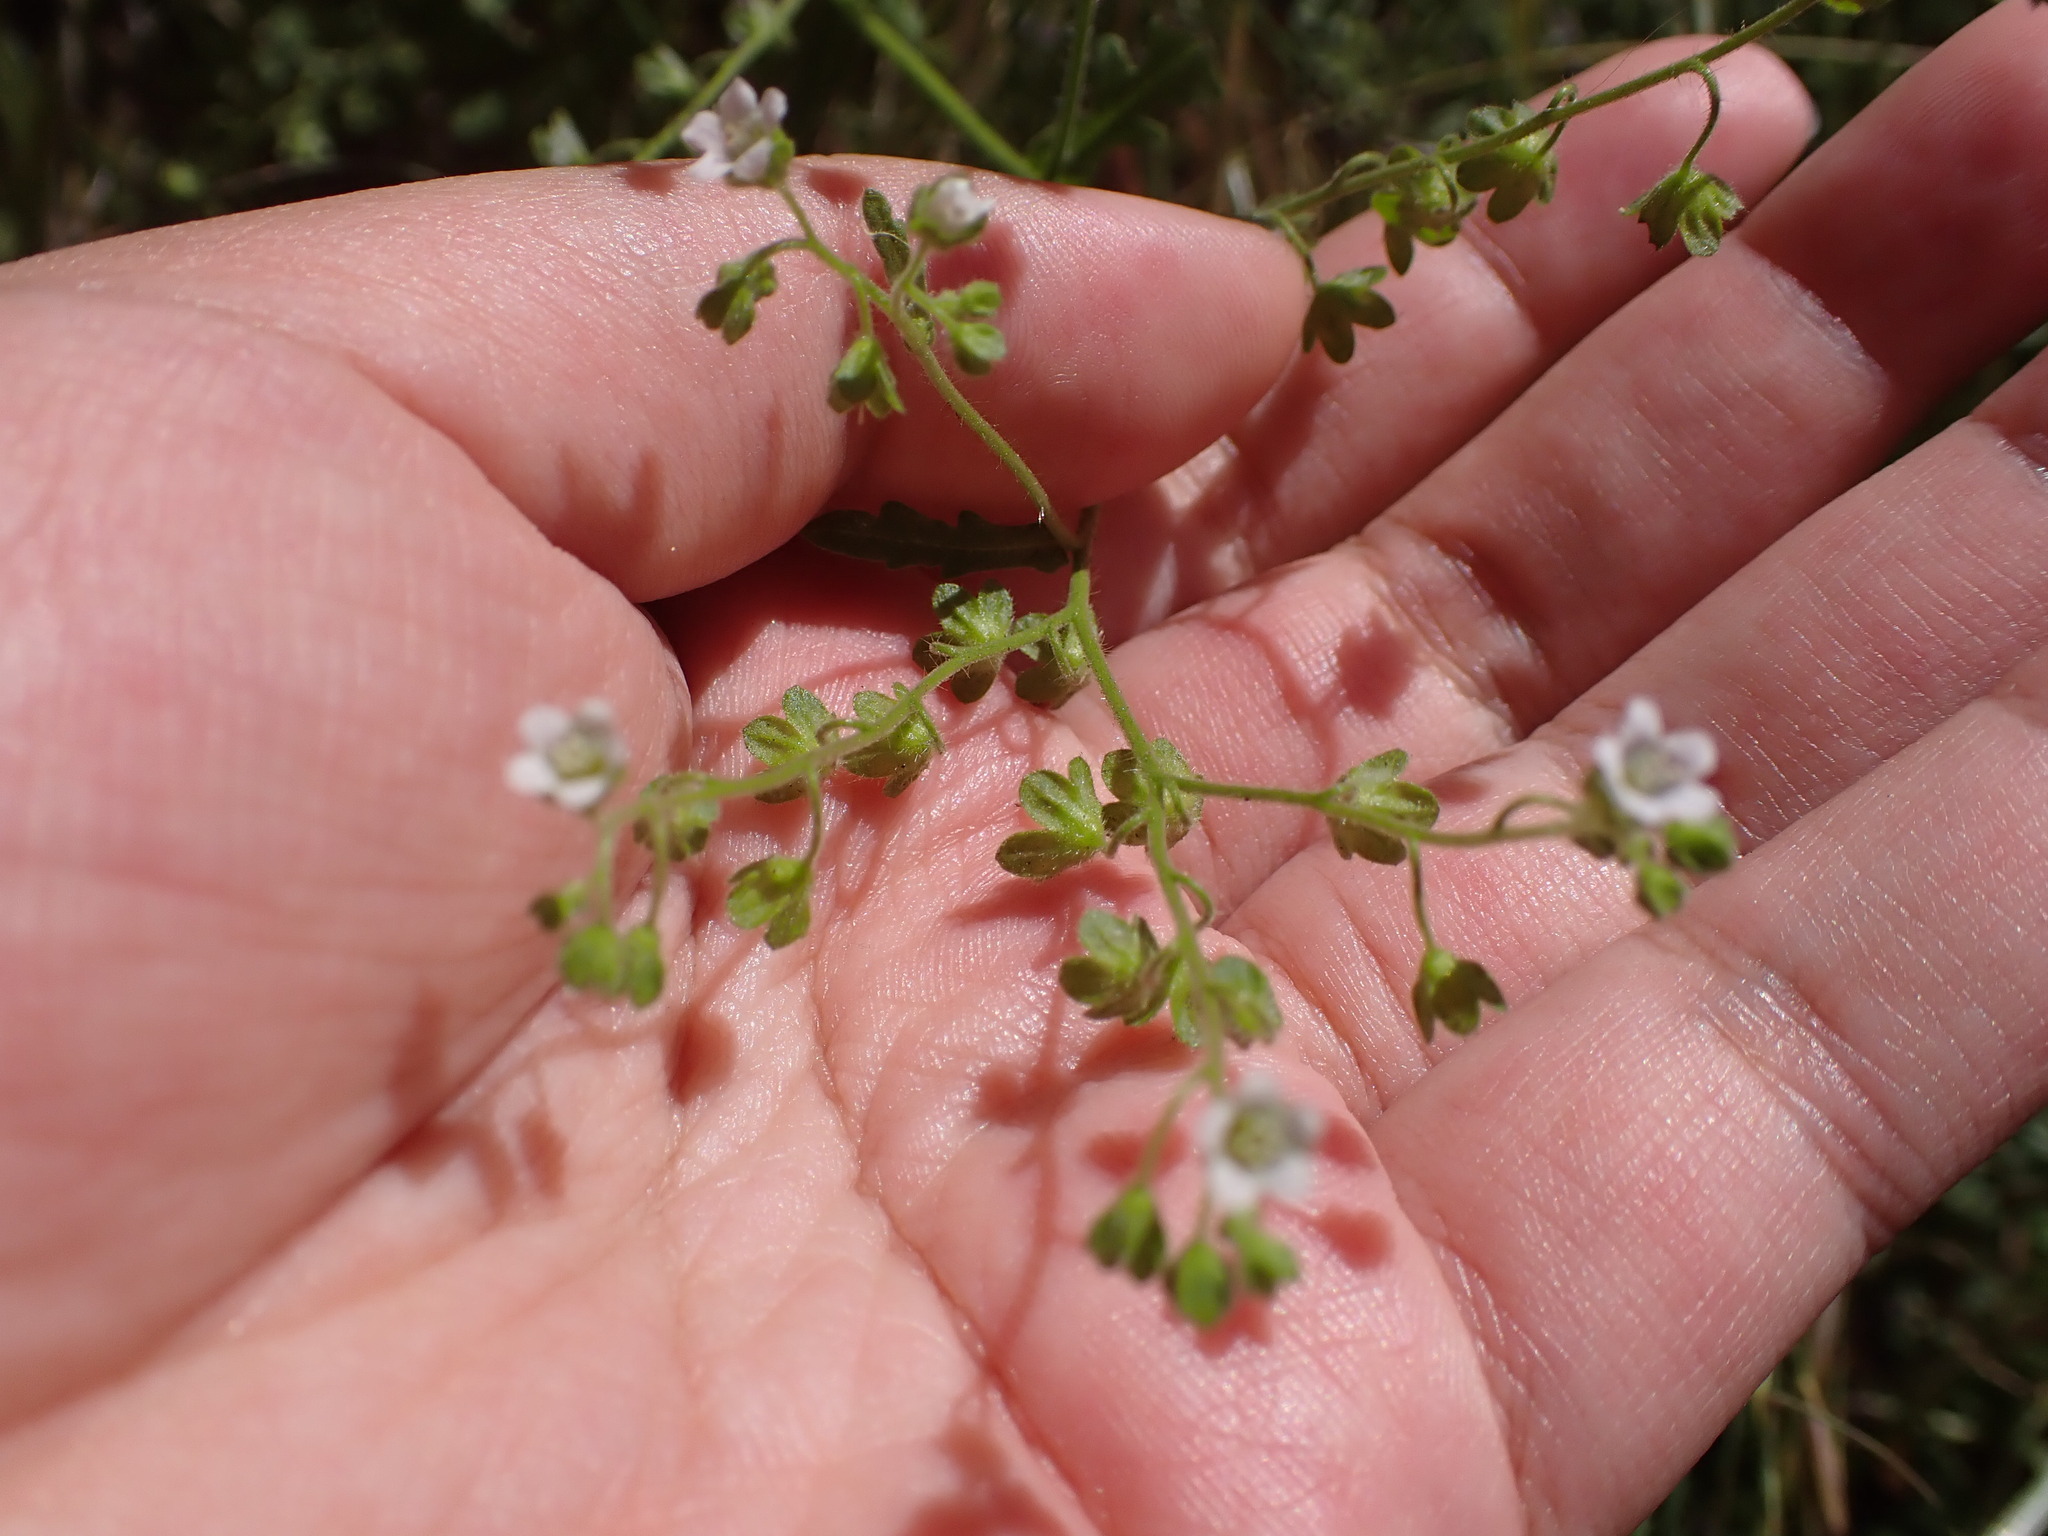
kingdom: Plantae
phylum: Tracheophyta
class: Magnoliopsida
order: Boraginales
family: Hydrophyllaceae
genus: Eucrypta
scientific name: Eucrypta chrysanthemifolia
